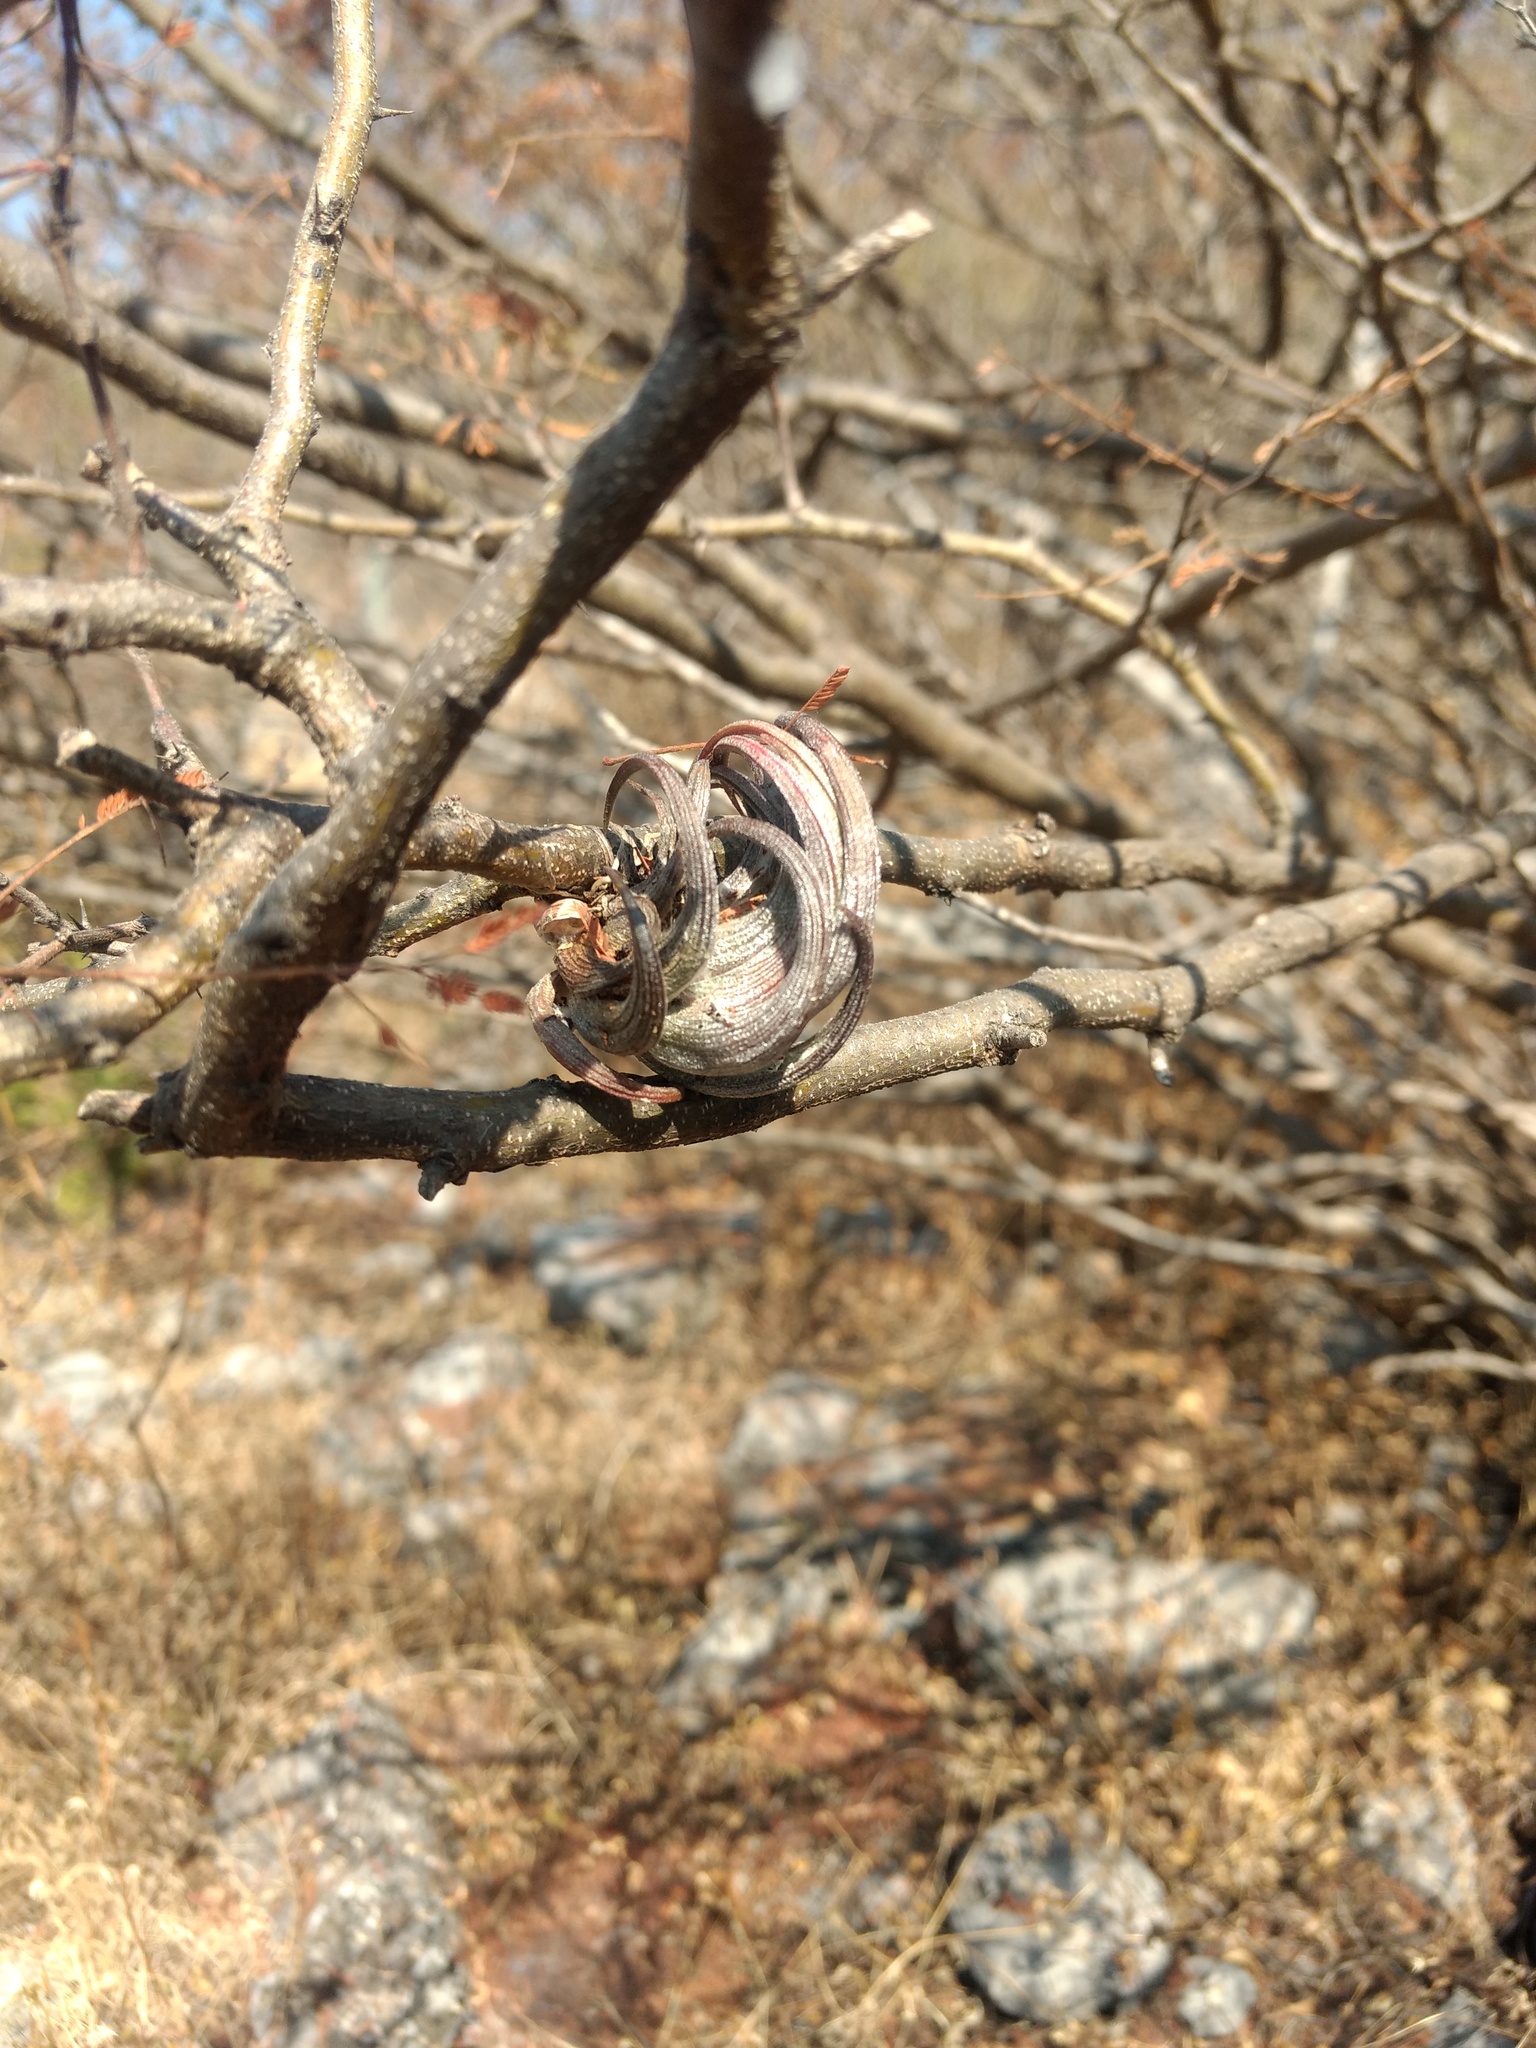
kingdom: Plantae
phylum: Tracheophyta
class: Liliopsida
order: Poales
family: Bromeliaceae
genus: Tillandsia
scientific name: Tillandsia circinnatioides
